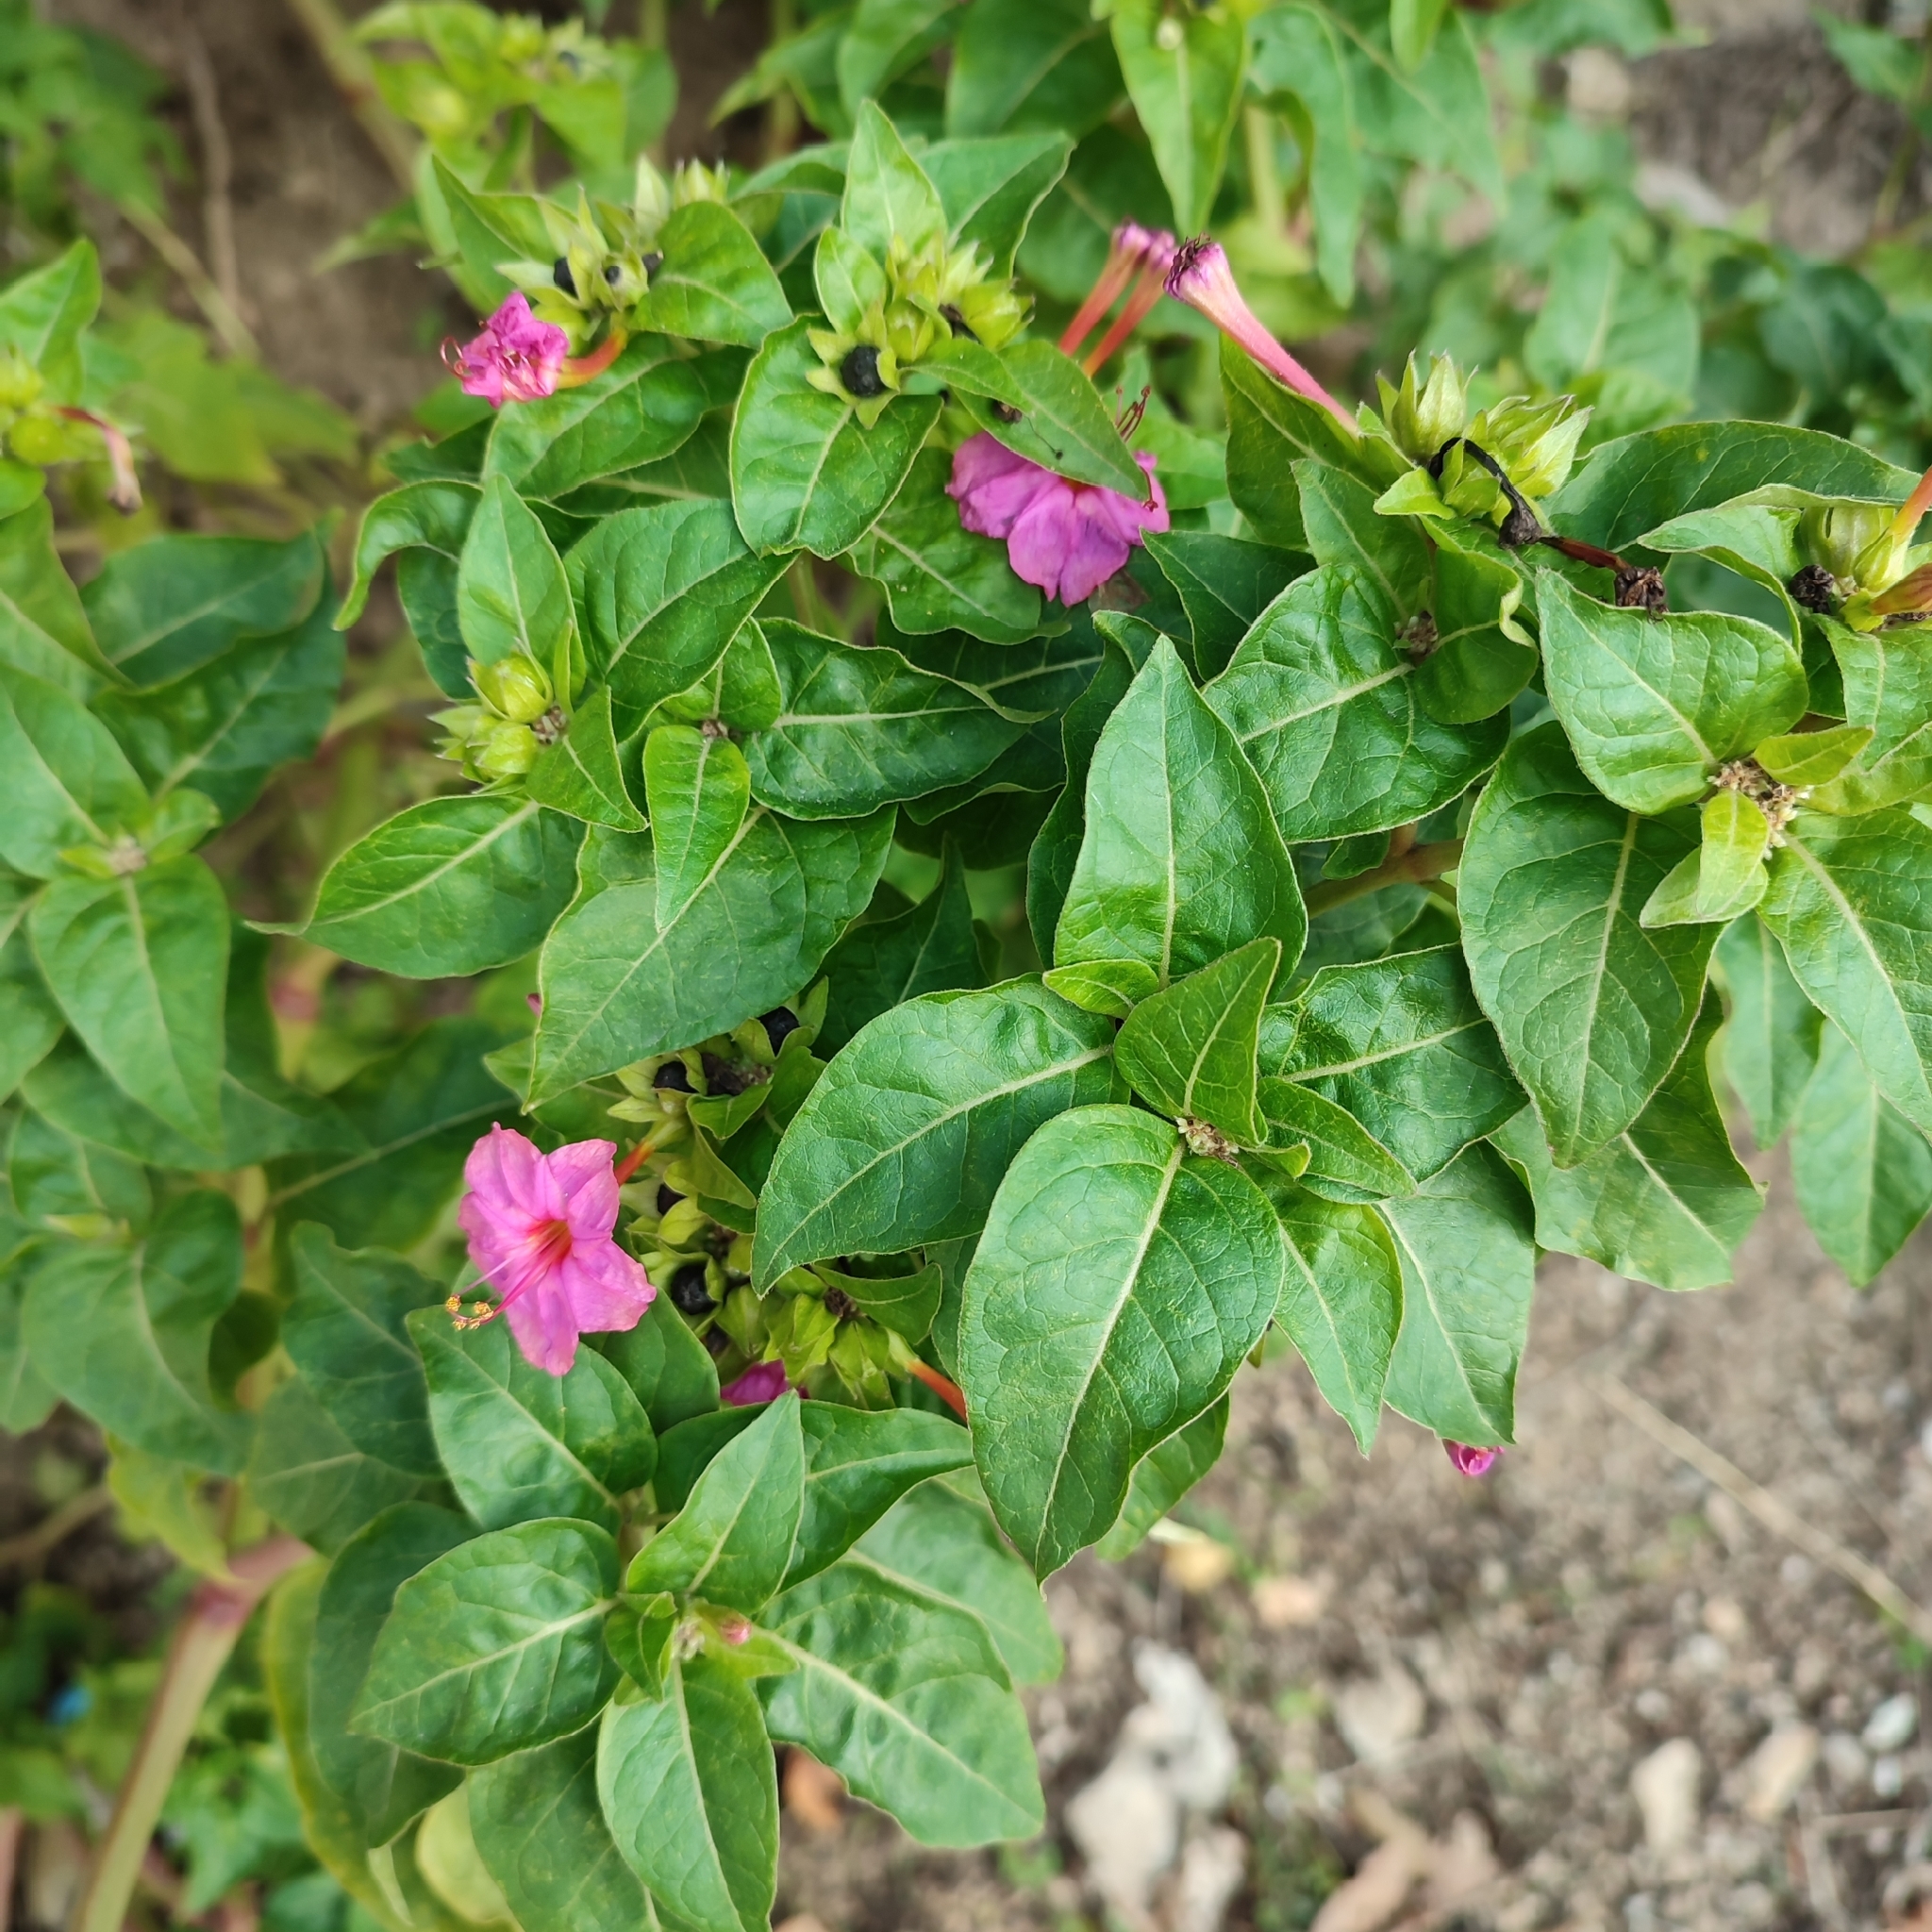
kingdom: Plantae
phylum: Tracheophyta
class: Magnoliopsida
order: Caryophyllales
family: Nyctaginaceae
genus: Mirabilis
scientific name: Mirabilis jalapa
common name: Marvel-of-peru
